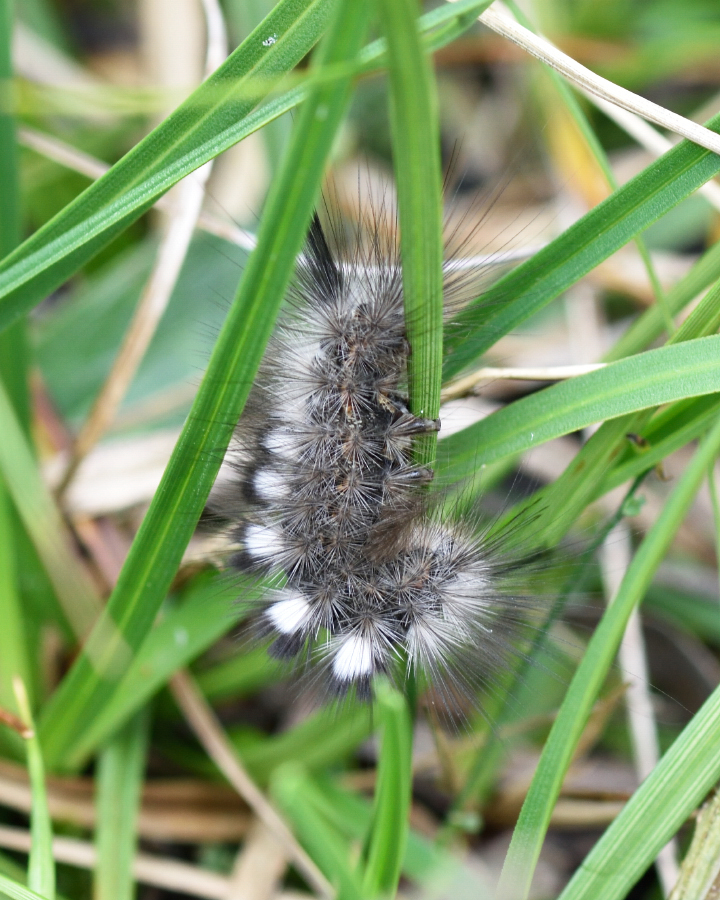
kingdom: Animalia
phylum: Arthropoda
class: Insecta
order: Lepidoptera
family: Erebidae
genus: Gynaephora
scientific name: Gynaephora selenitica
